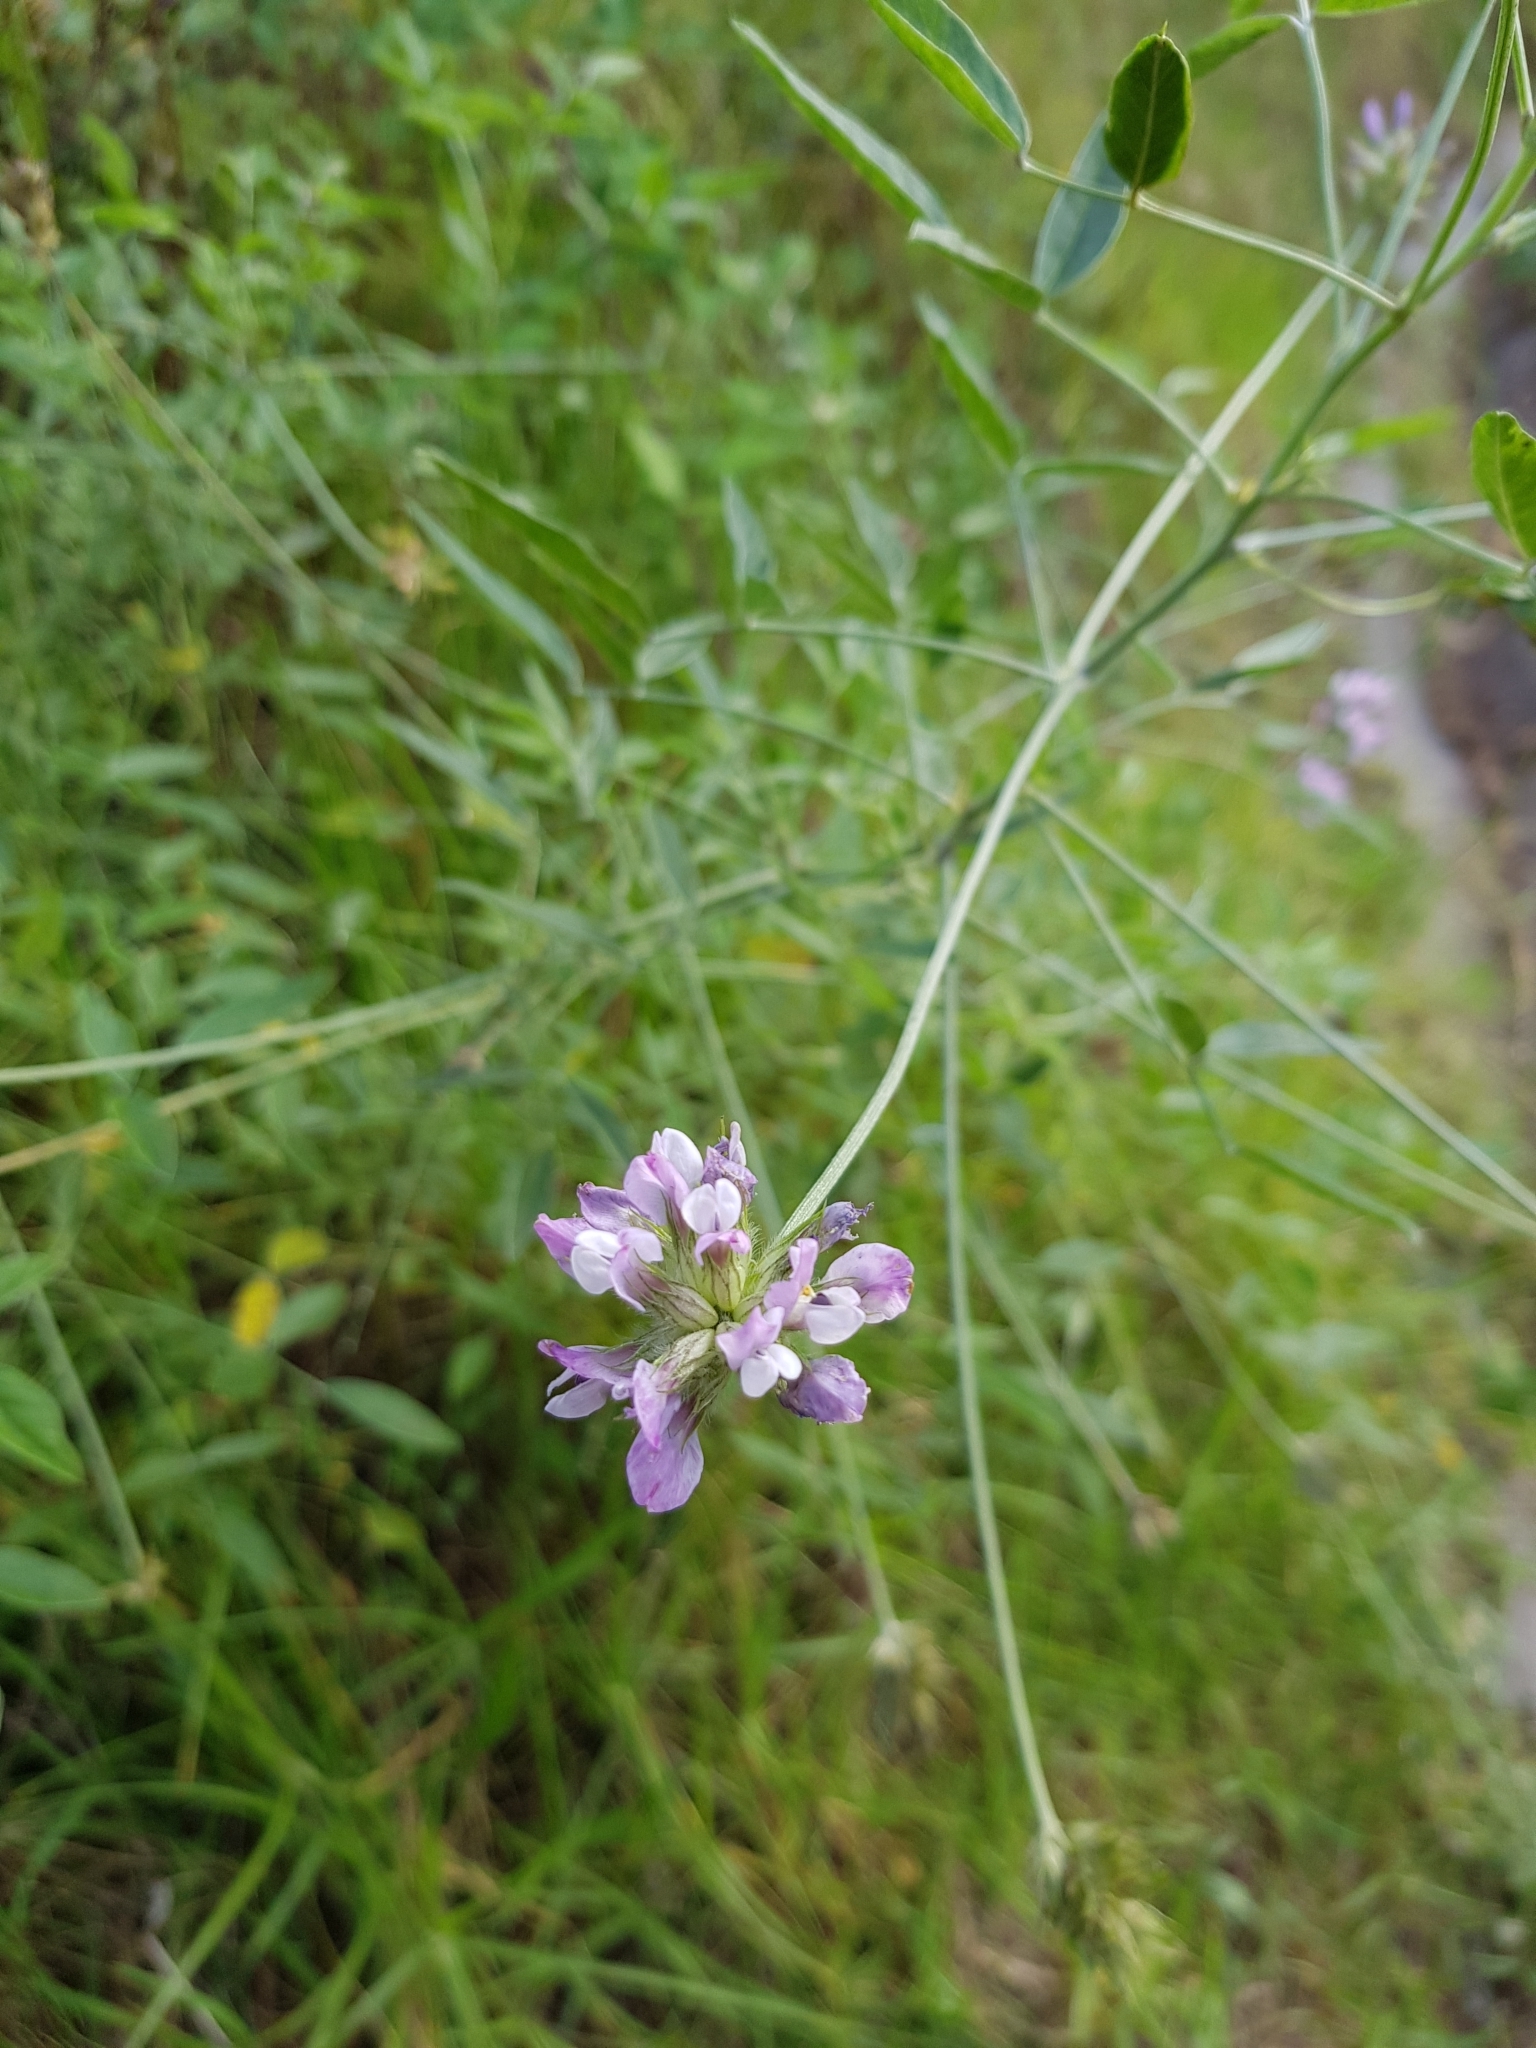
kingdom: Plantae
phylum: Tracheophyta
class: Magnoliopsida
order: Fabales
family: Fabaceae
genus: Bituminaria
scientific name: Bituminaria bituminosa
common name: Arabian pea
